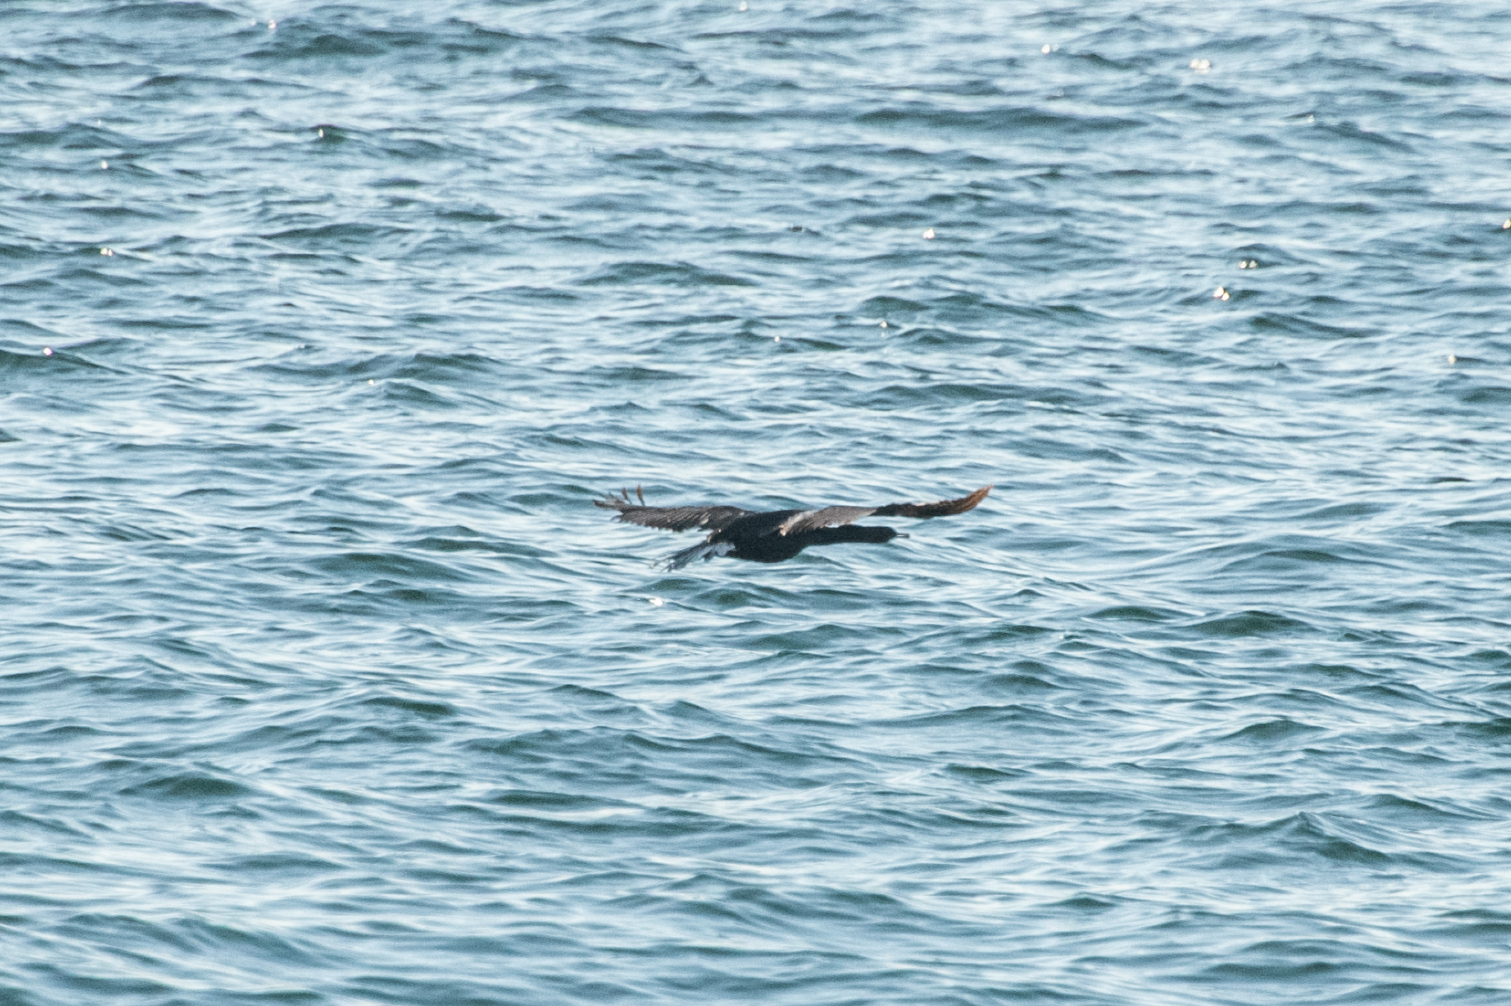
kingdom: Animalia
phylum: Chordata
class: Aves
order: Suliformes
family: Phalacrocoracidae
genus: Phalacrocorax
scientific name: Phalacrocorax pelagicus
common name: Pelagic cormorant
